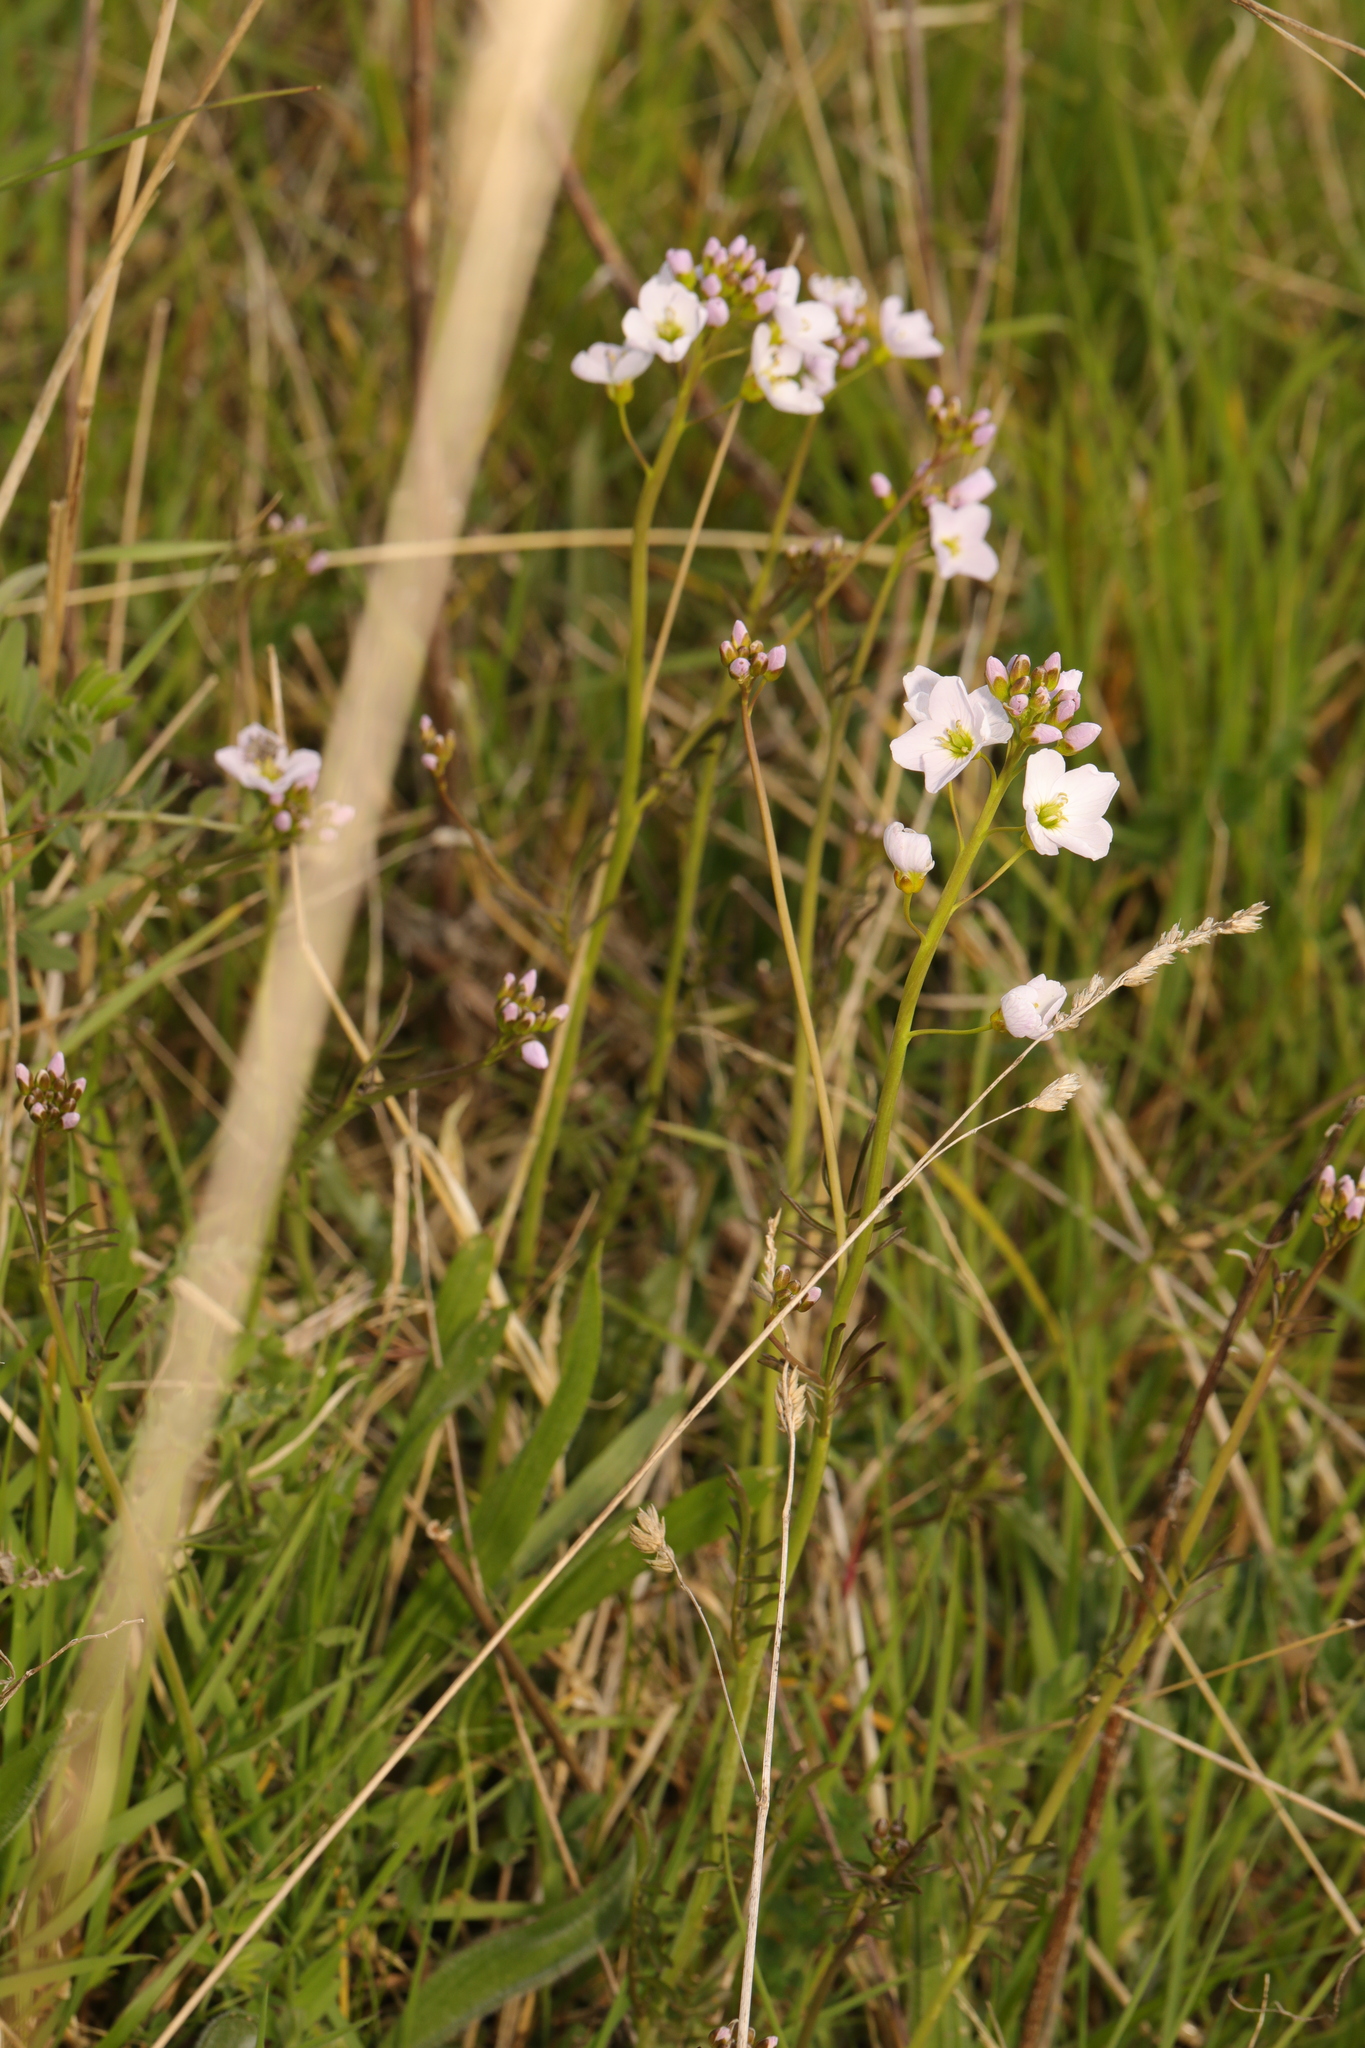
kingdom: Plantae
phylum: Tracheophyta
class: Magnoliopsida
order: Brassicales
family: Brassicaceae
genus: Cardamine
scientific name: Cardamine pratensis
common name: Cuckoo flower
